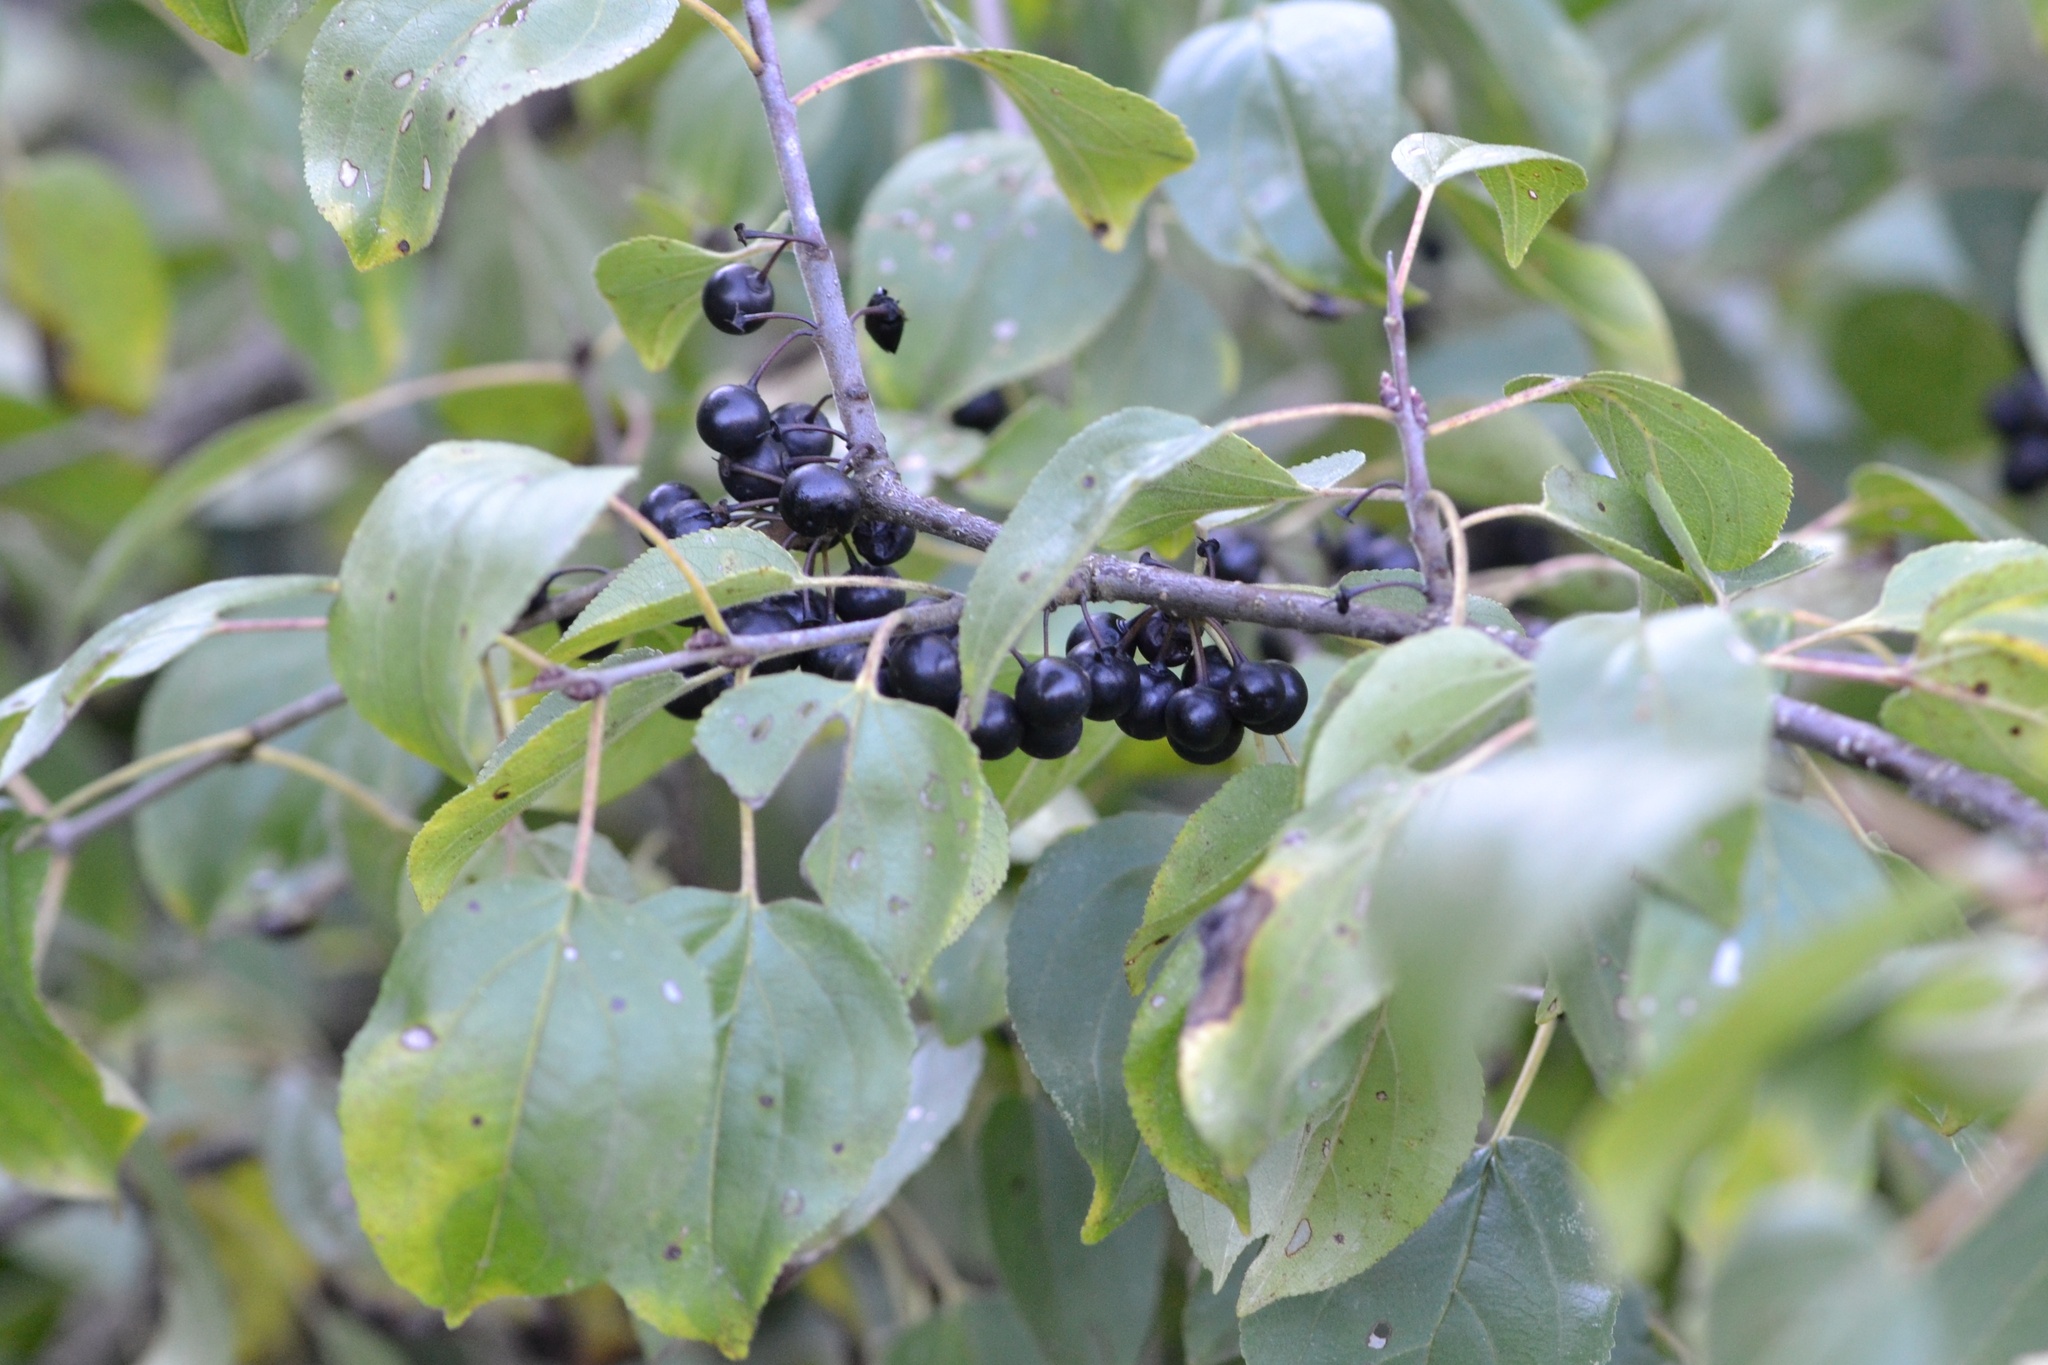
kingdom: Plantae
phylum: Tracheophyta
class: Magnoliopsida
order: Rosales
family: Rhamnaceae
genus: Rhamnus
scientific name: Rhamnus cathartica
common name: Common buckthorn
